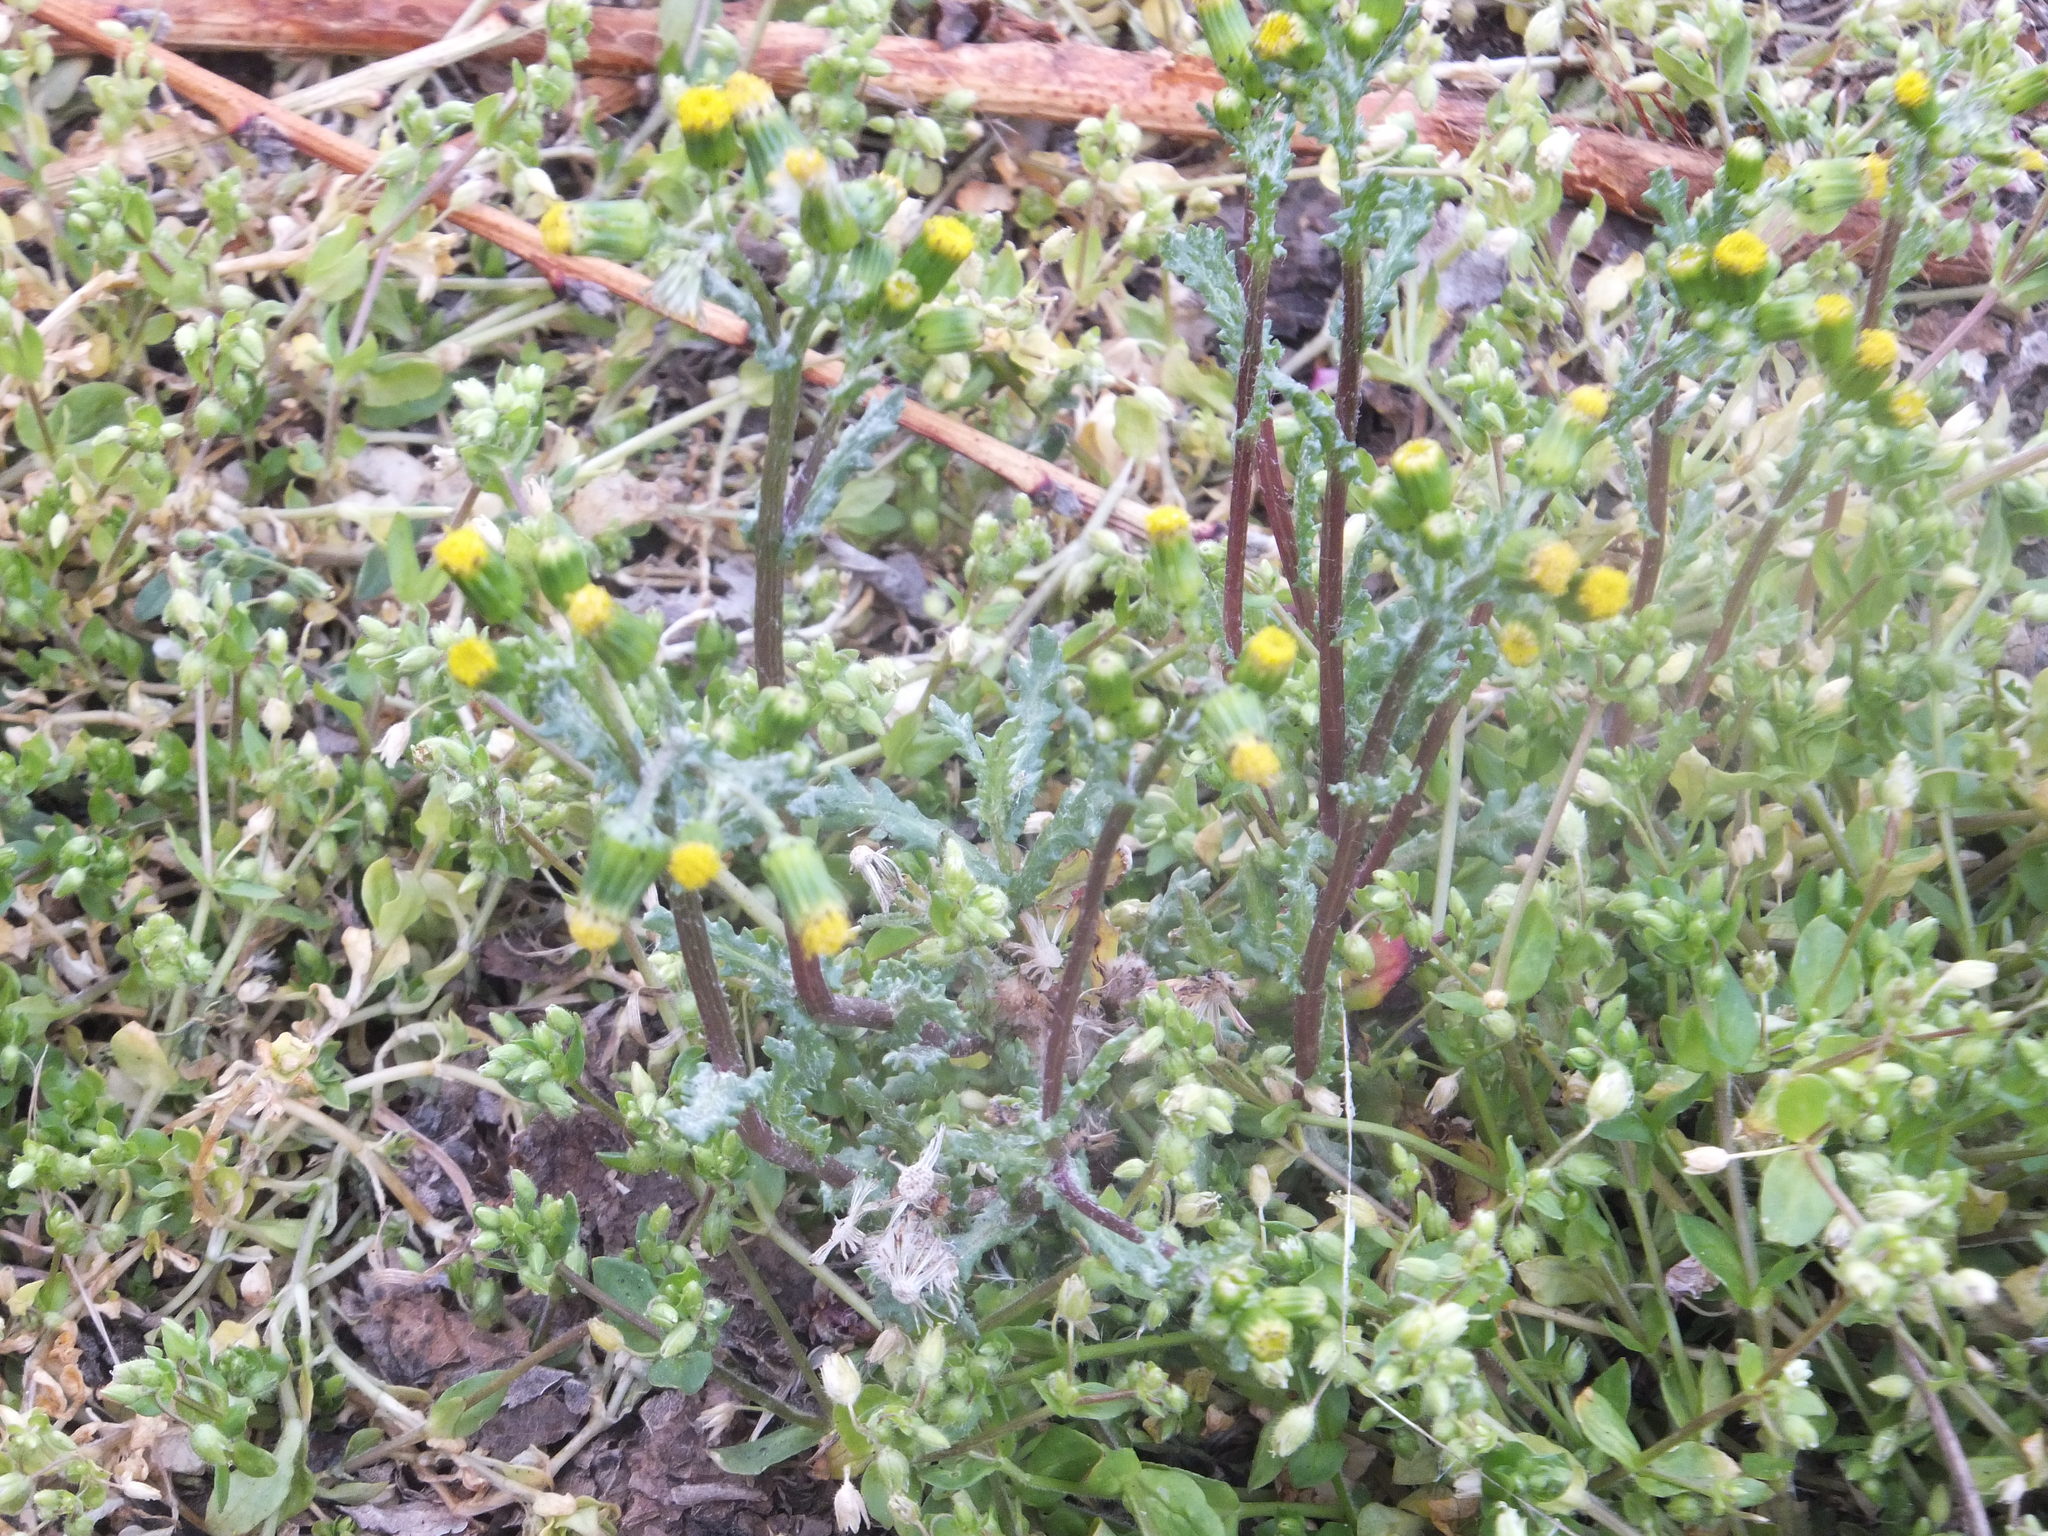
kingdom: Plantae
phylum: Tracheophyta
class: Magnoliopsida
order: Asterales
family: Asteraceae
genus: Senecio
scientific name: Senecio vulgaris
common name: Old-man-in-the-spring
